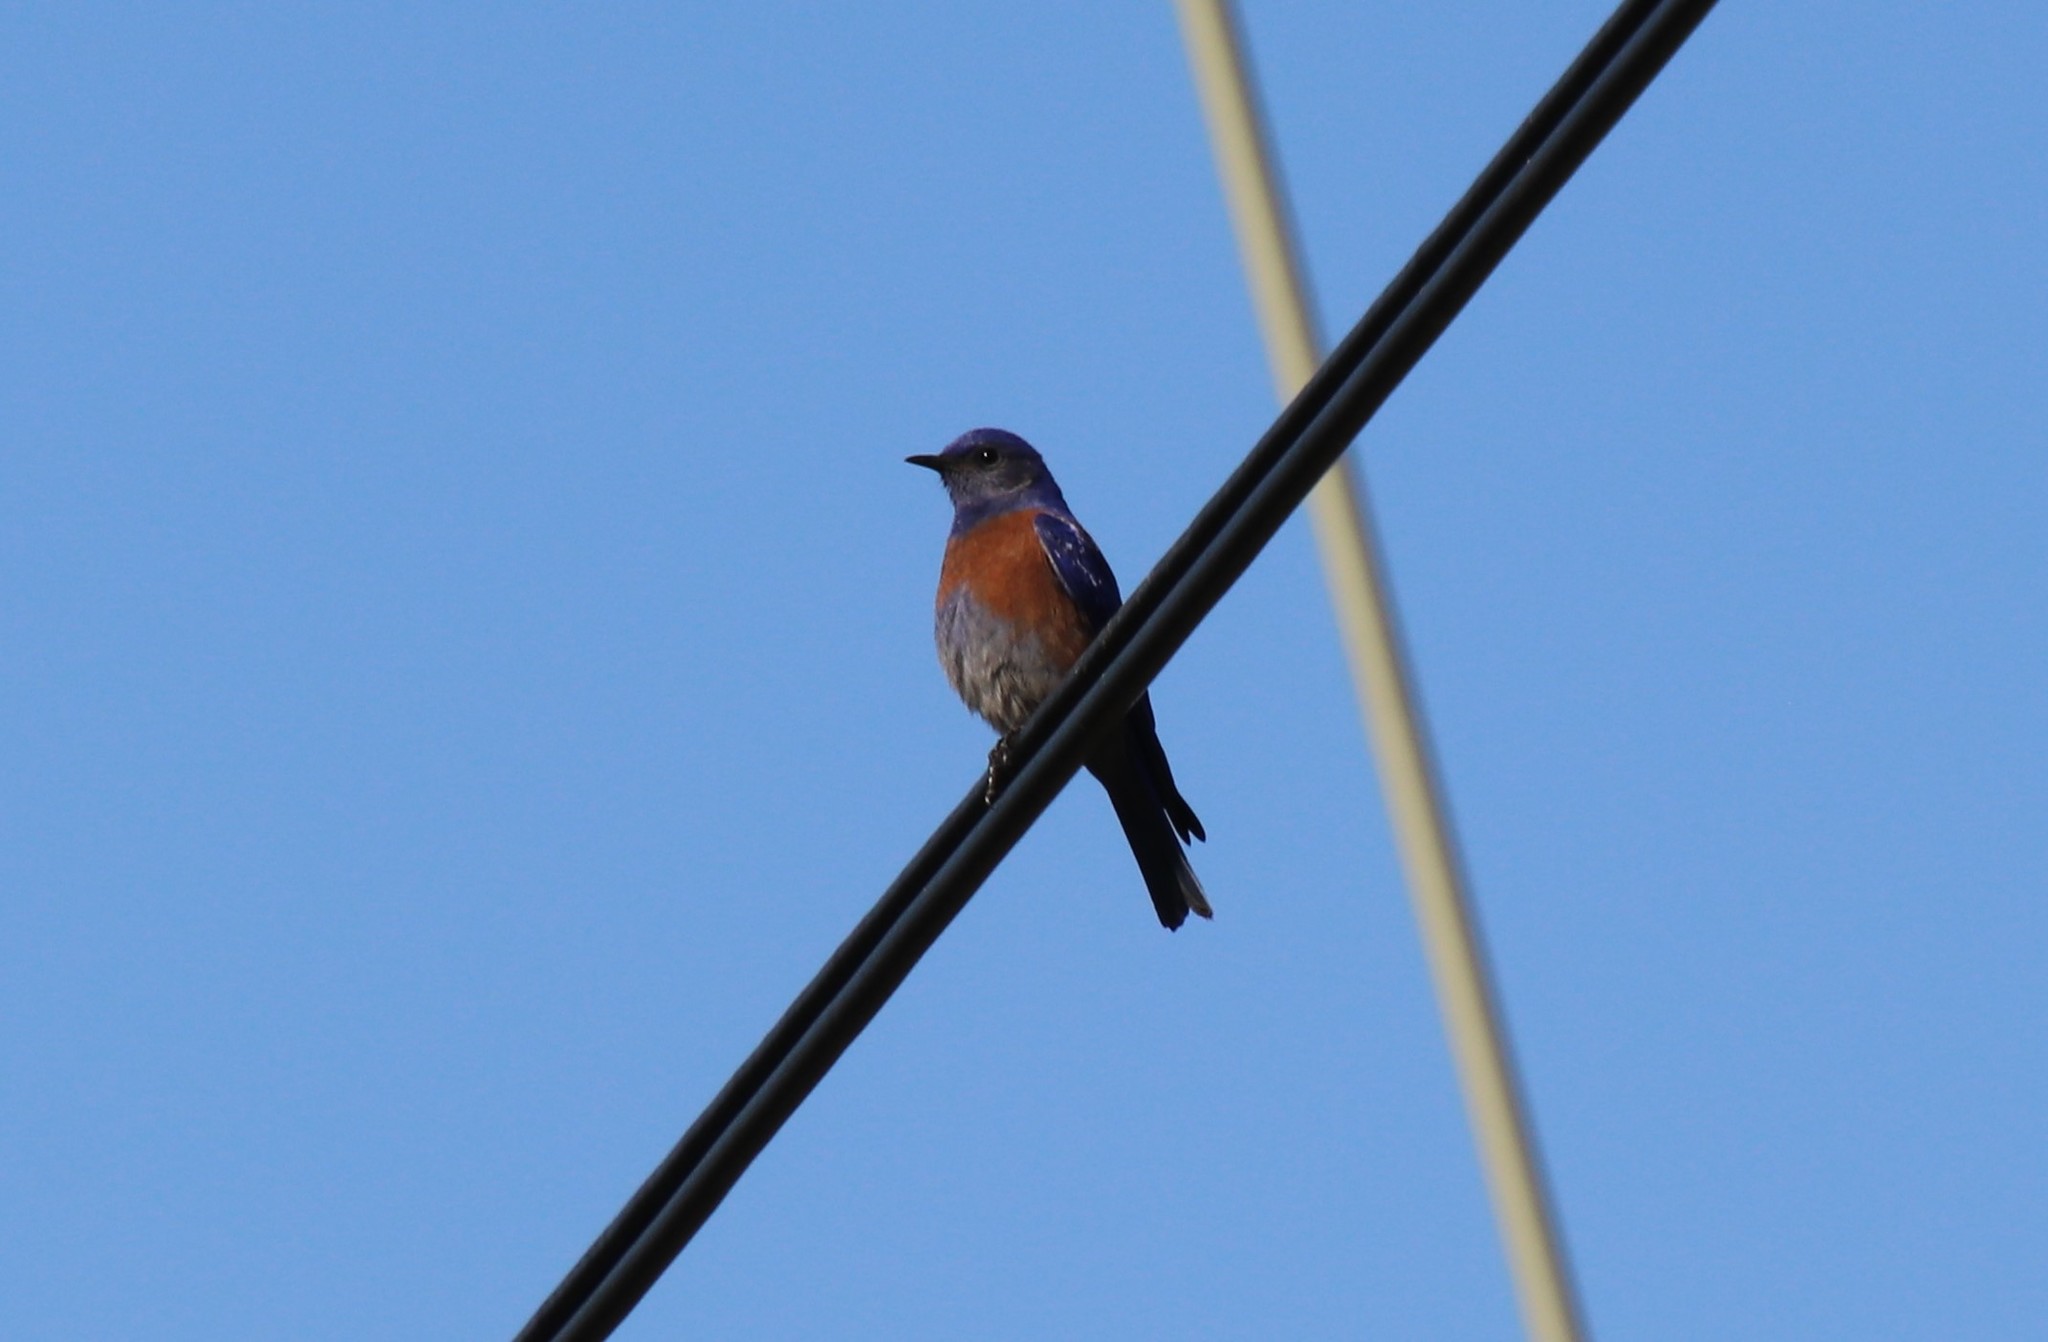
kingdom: Animalia
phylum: Chordata
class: Aves
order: Passeriformes
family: Turdidae
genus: Sialia
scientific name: Sialia mexicana
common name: Western bluebird
